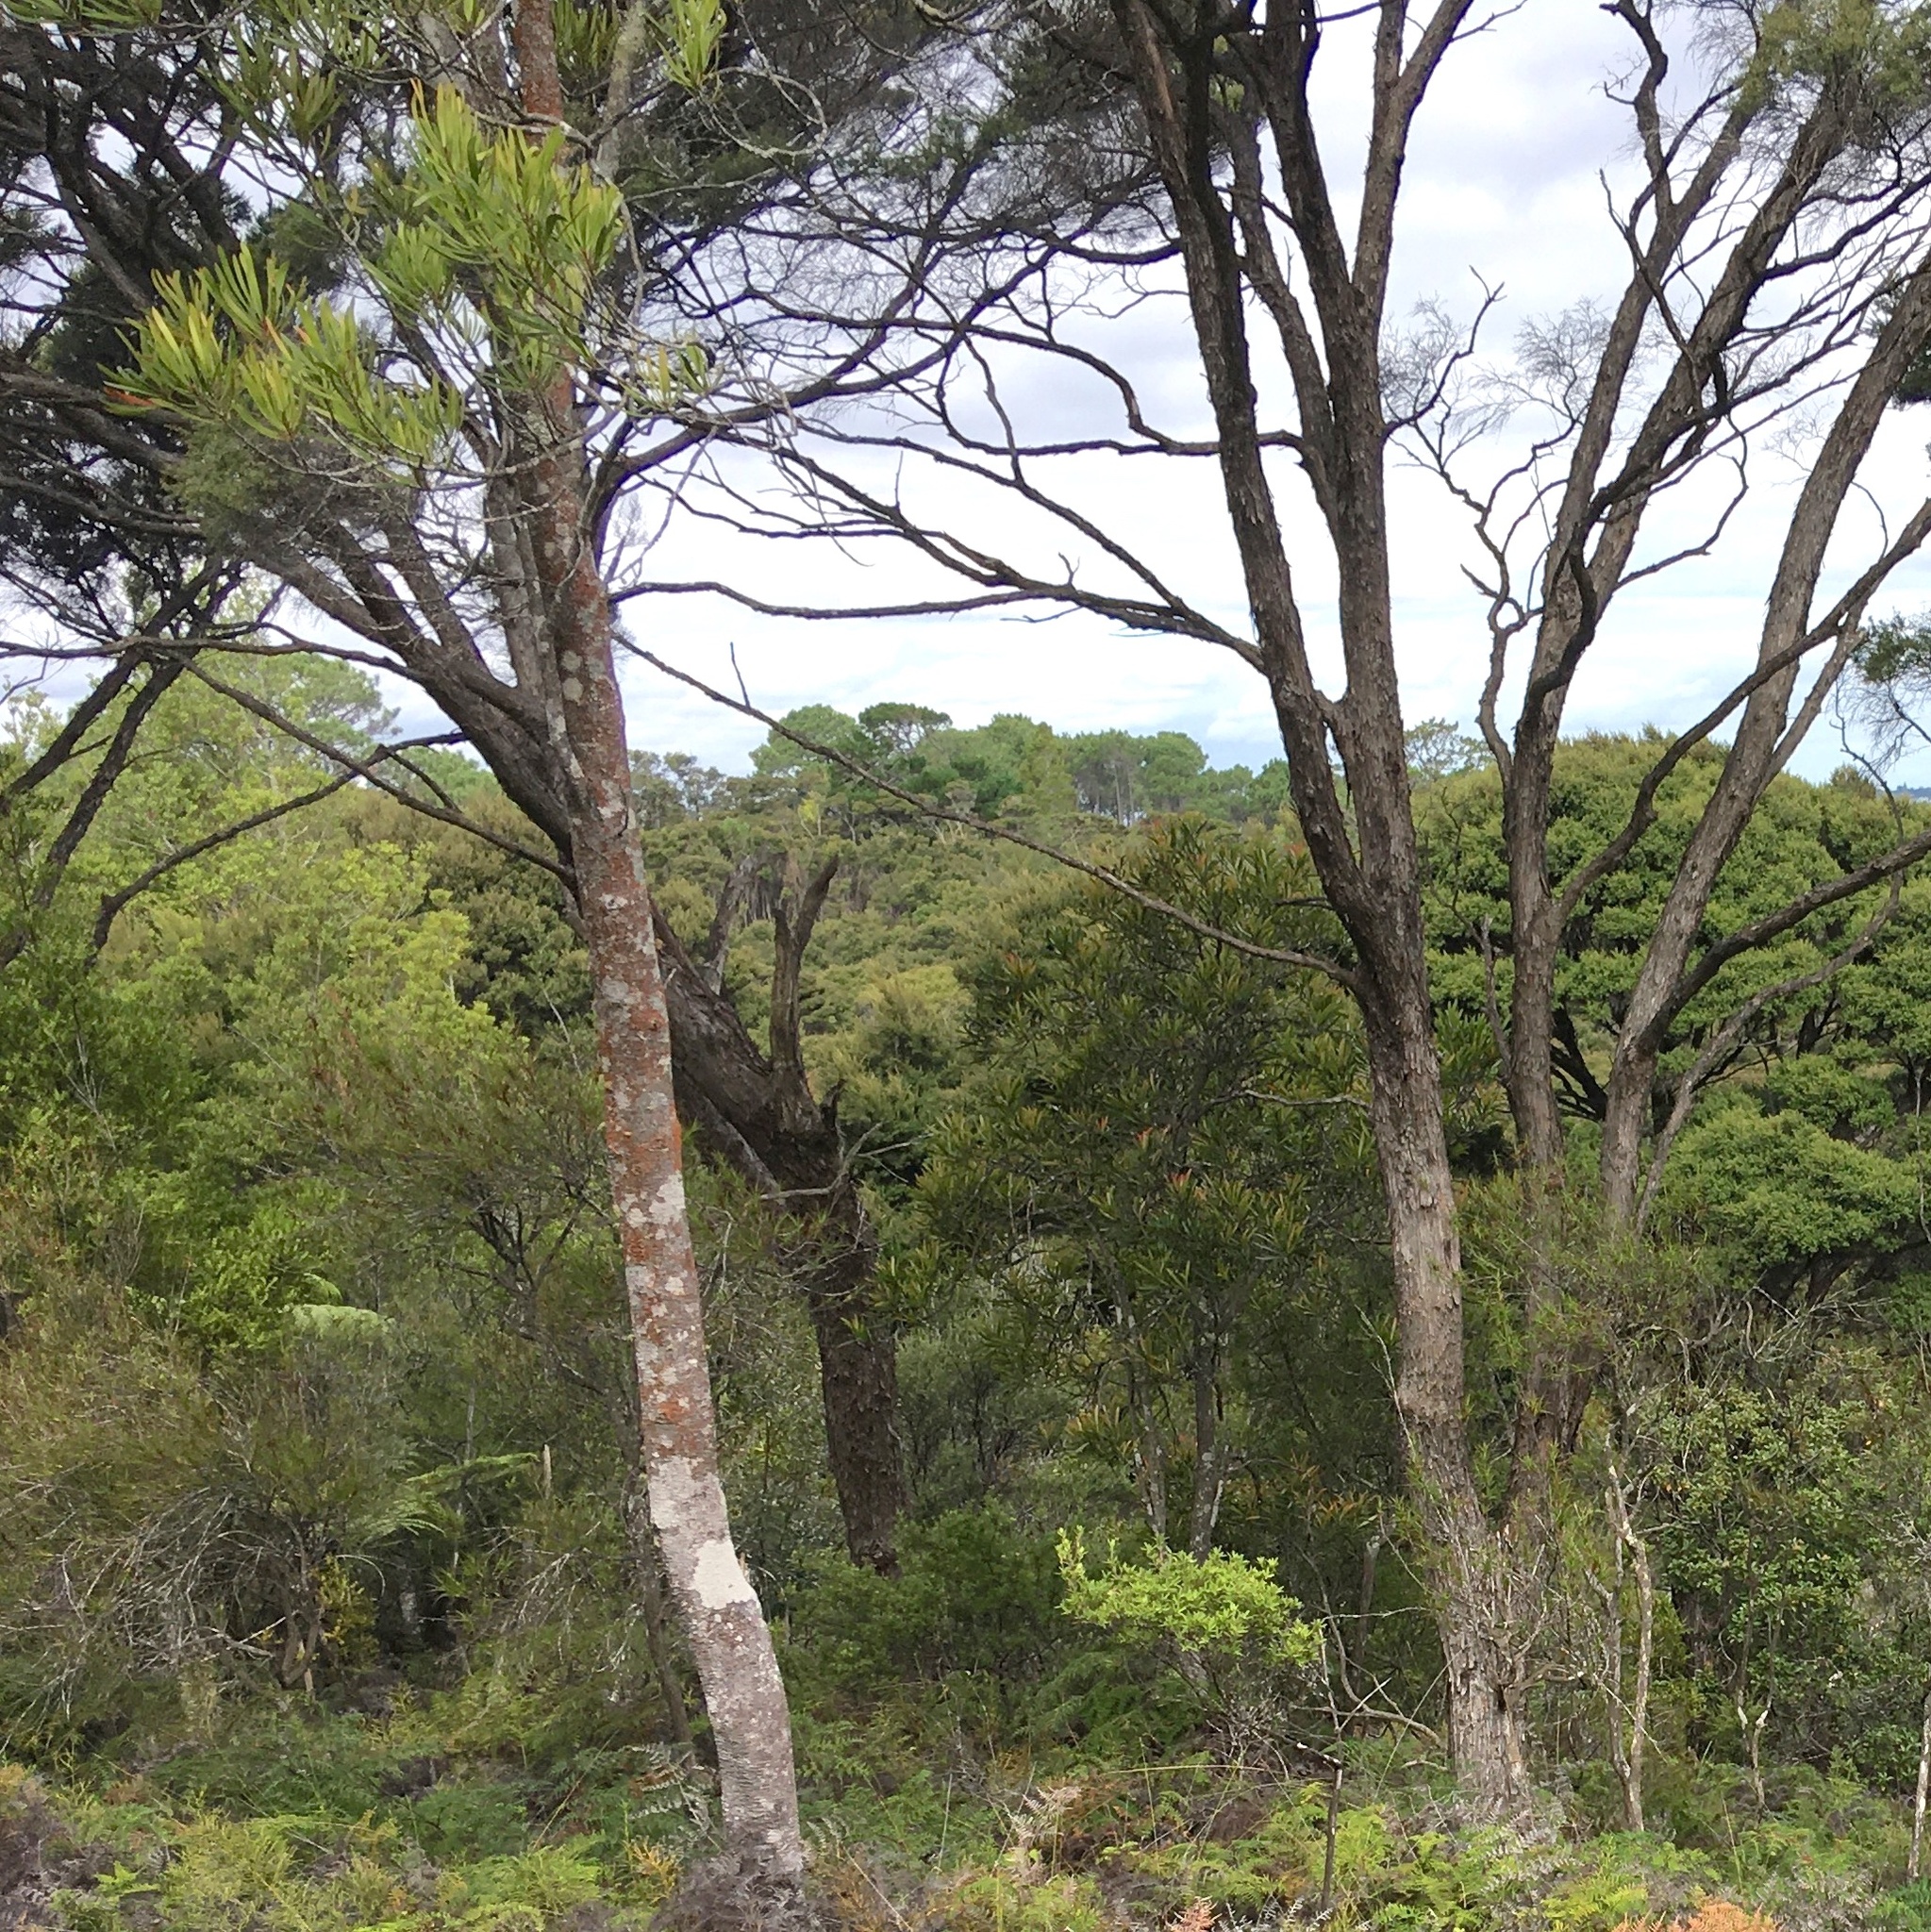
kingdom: Plantae
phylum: Tracheophyta
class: Magnoliopsida
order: Proteales
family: Proteaceae
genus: Toronia
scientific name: Toronia toru
